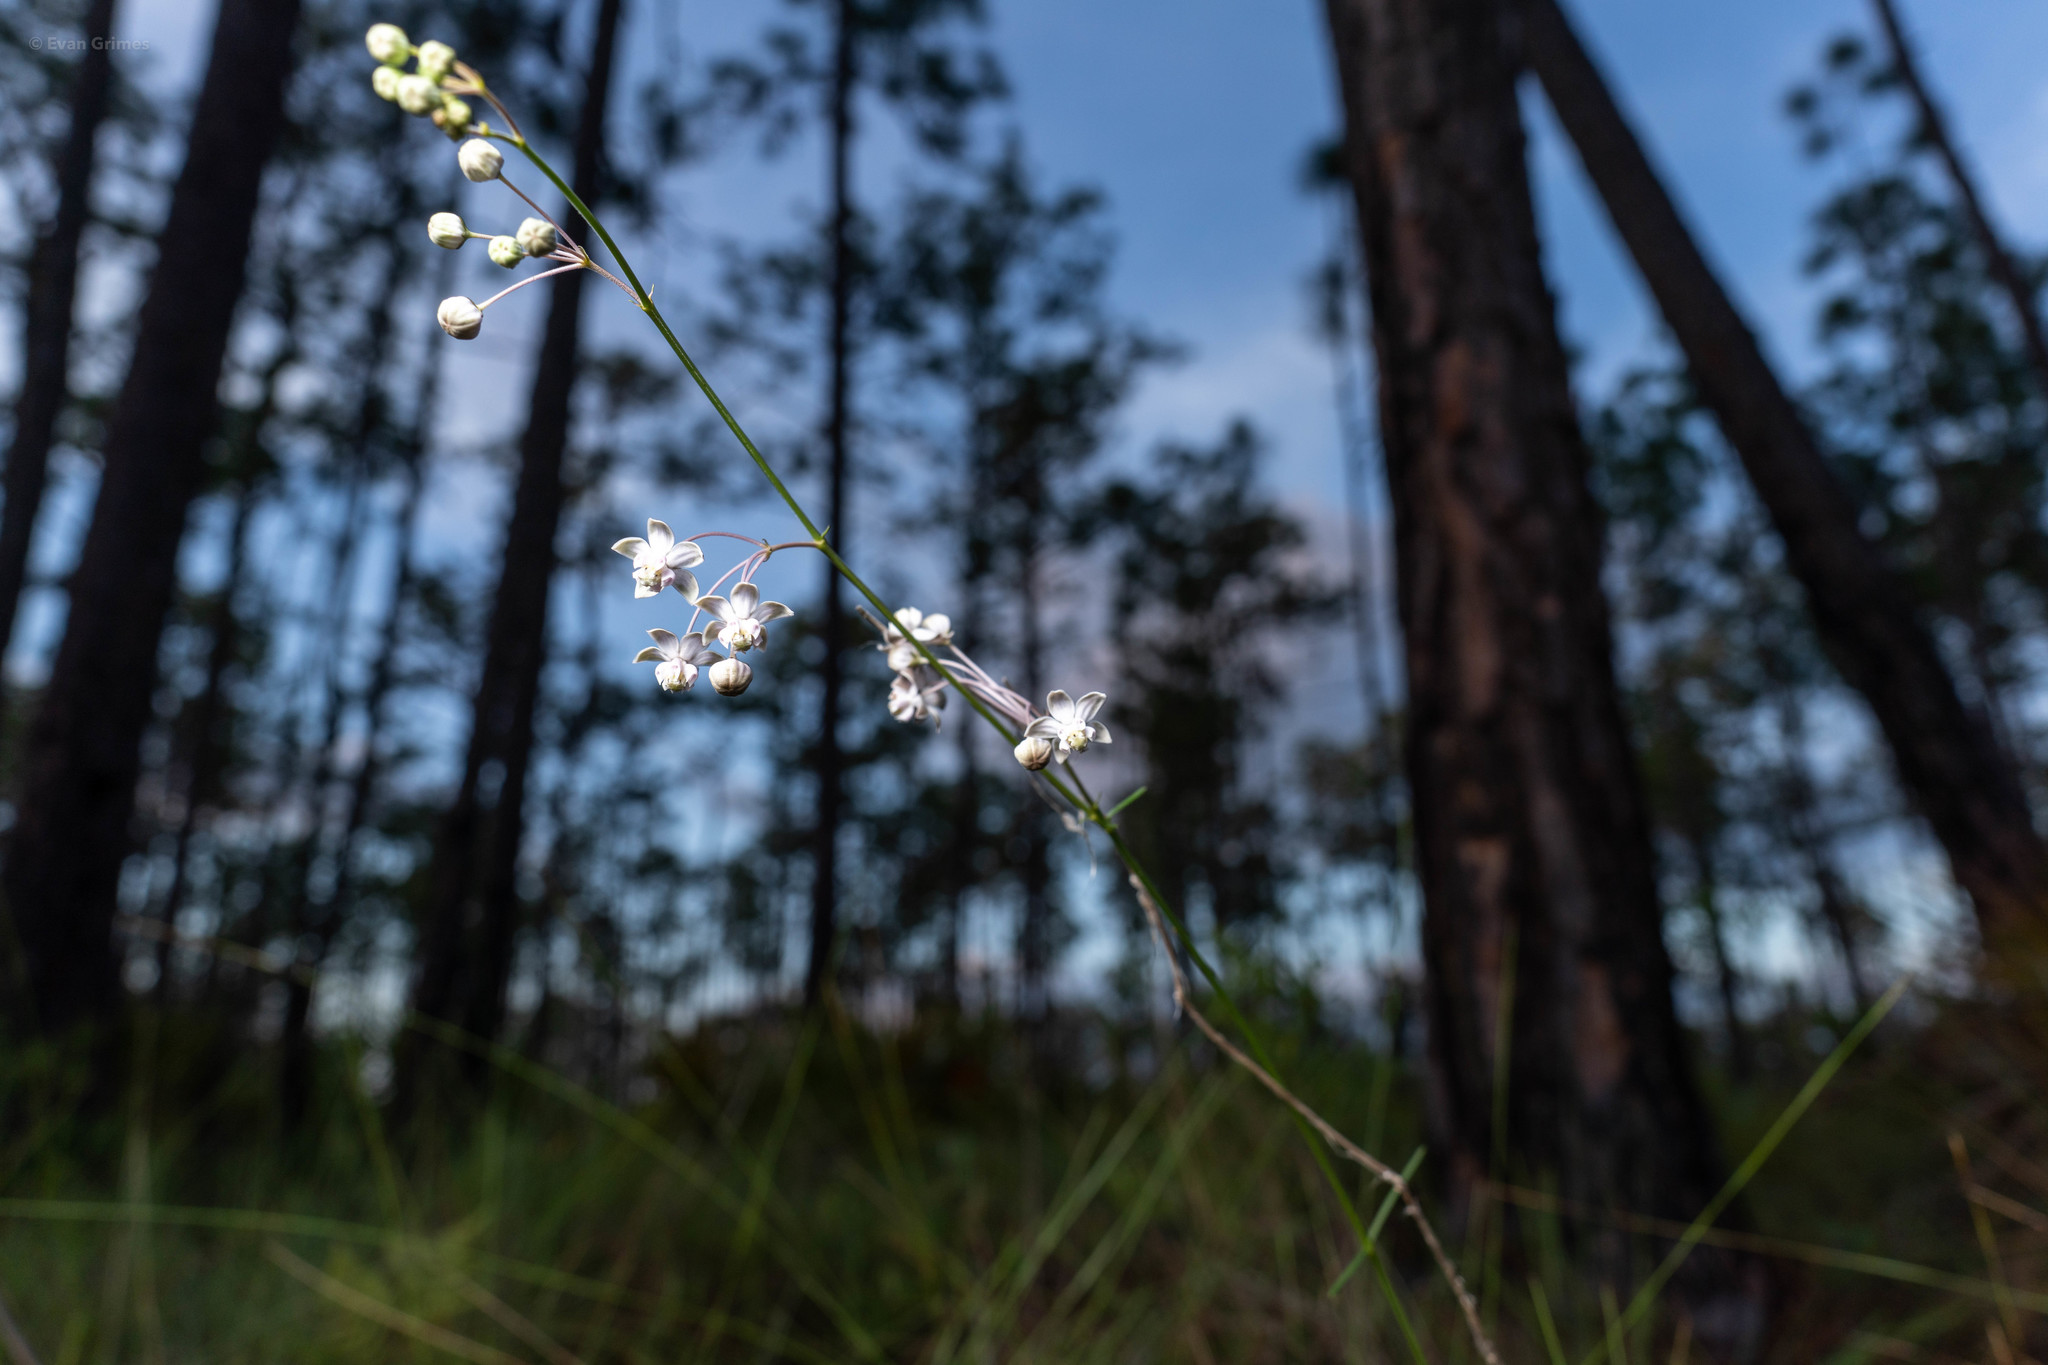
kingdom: Plantae
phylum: Tracheophyta
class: Magnoliopsida
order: Gentianales
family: Apocynaceae
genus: Asclepias
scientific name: Asclepias cinerea
